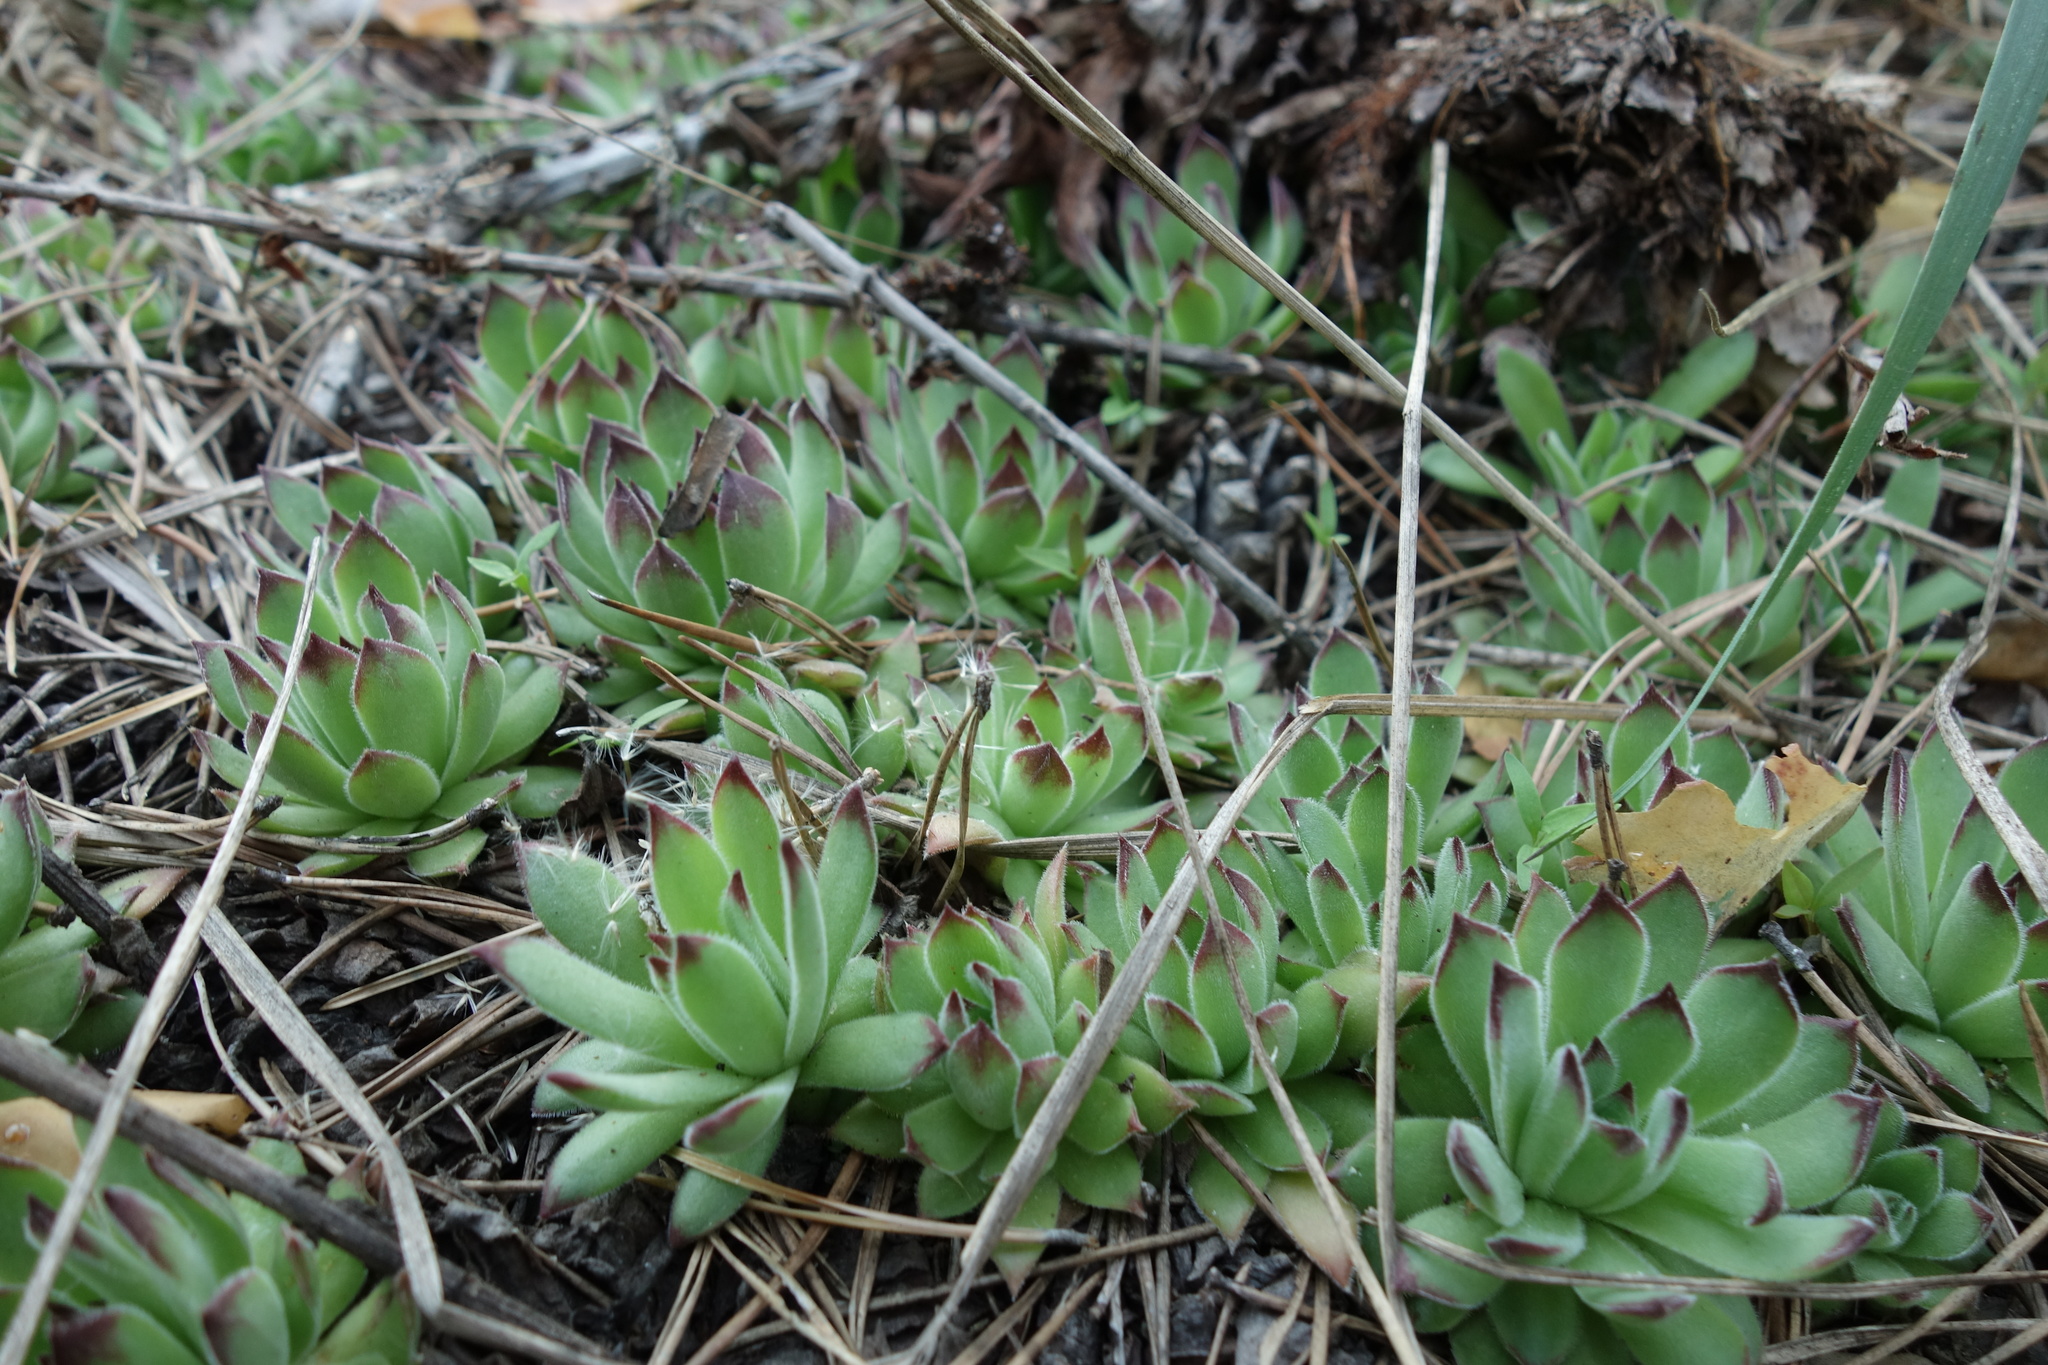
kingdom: Plantae
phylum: Tracheophyta
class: Magnoliopsida
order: Saxifragales
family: Crassulaceae
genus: Sempervivum
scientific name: Sempervivum ruthenicum
